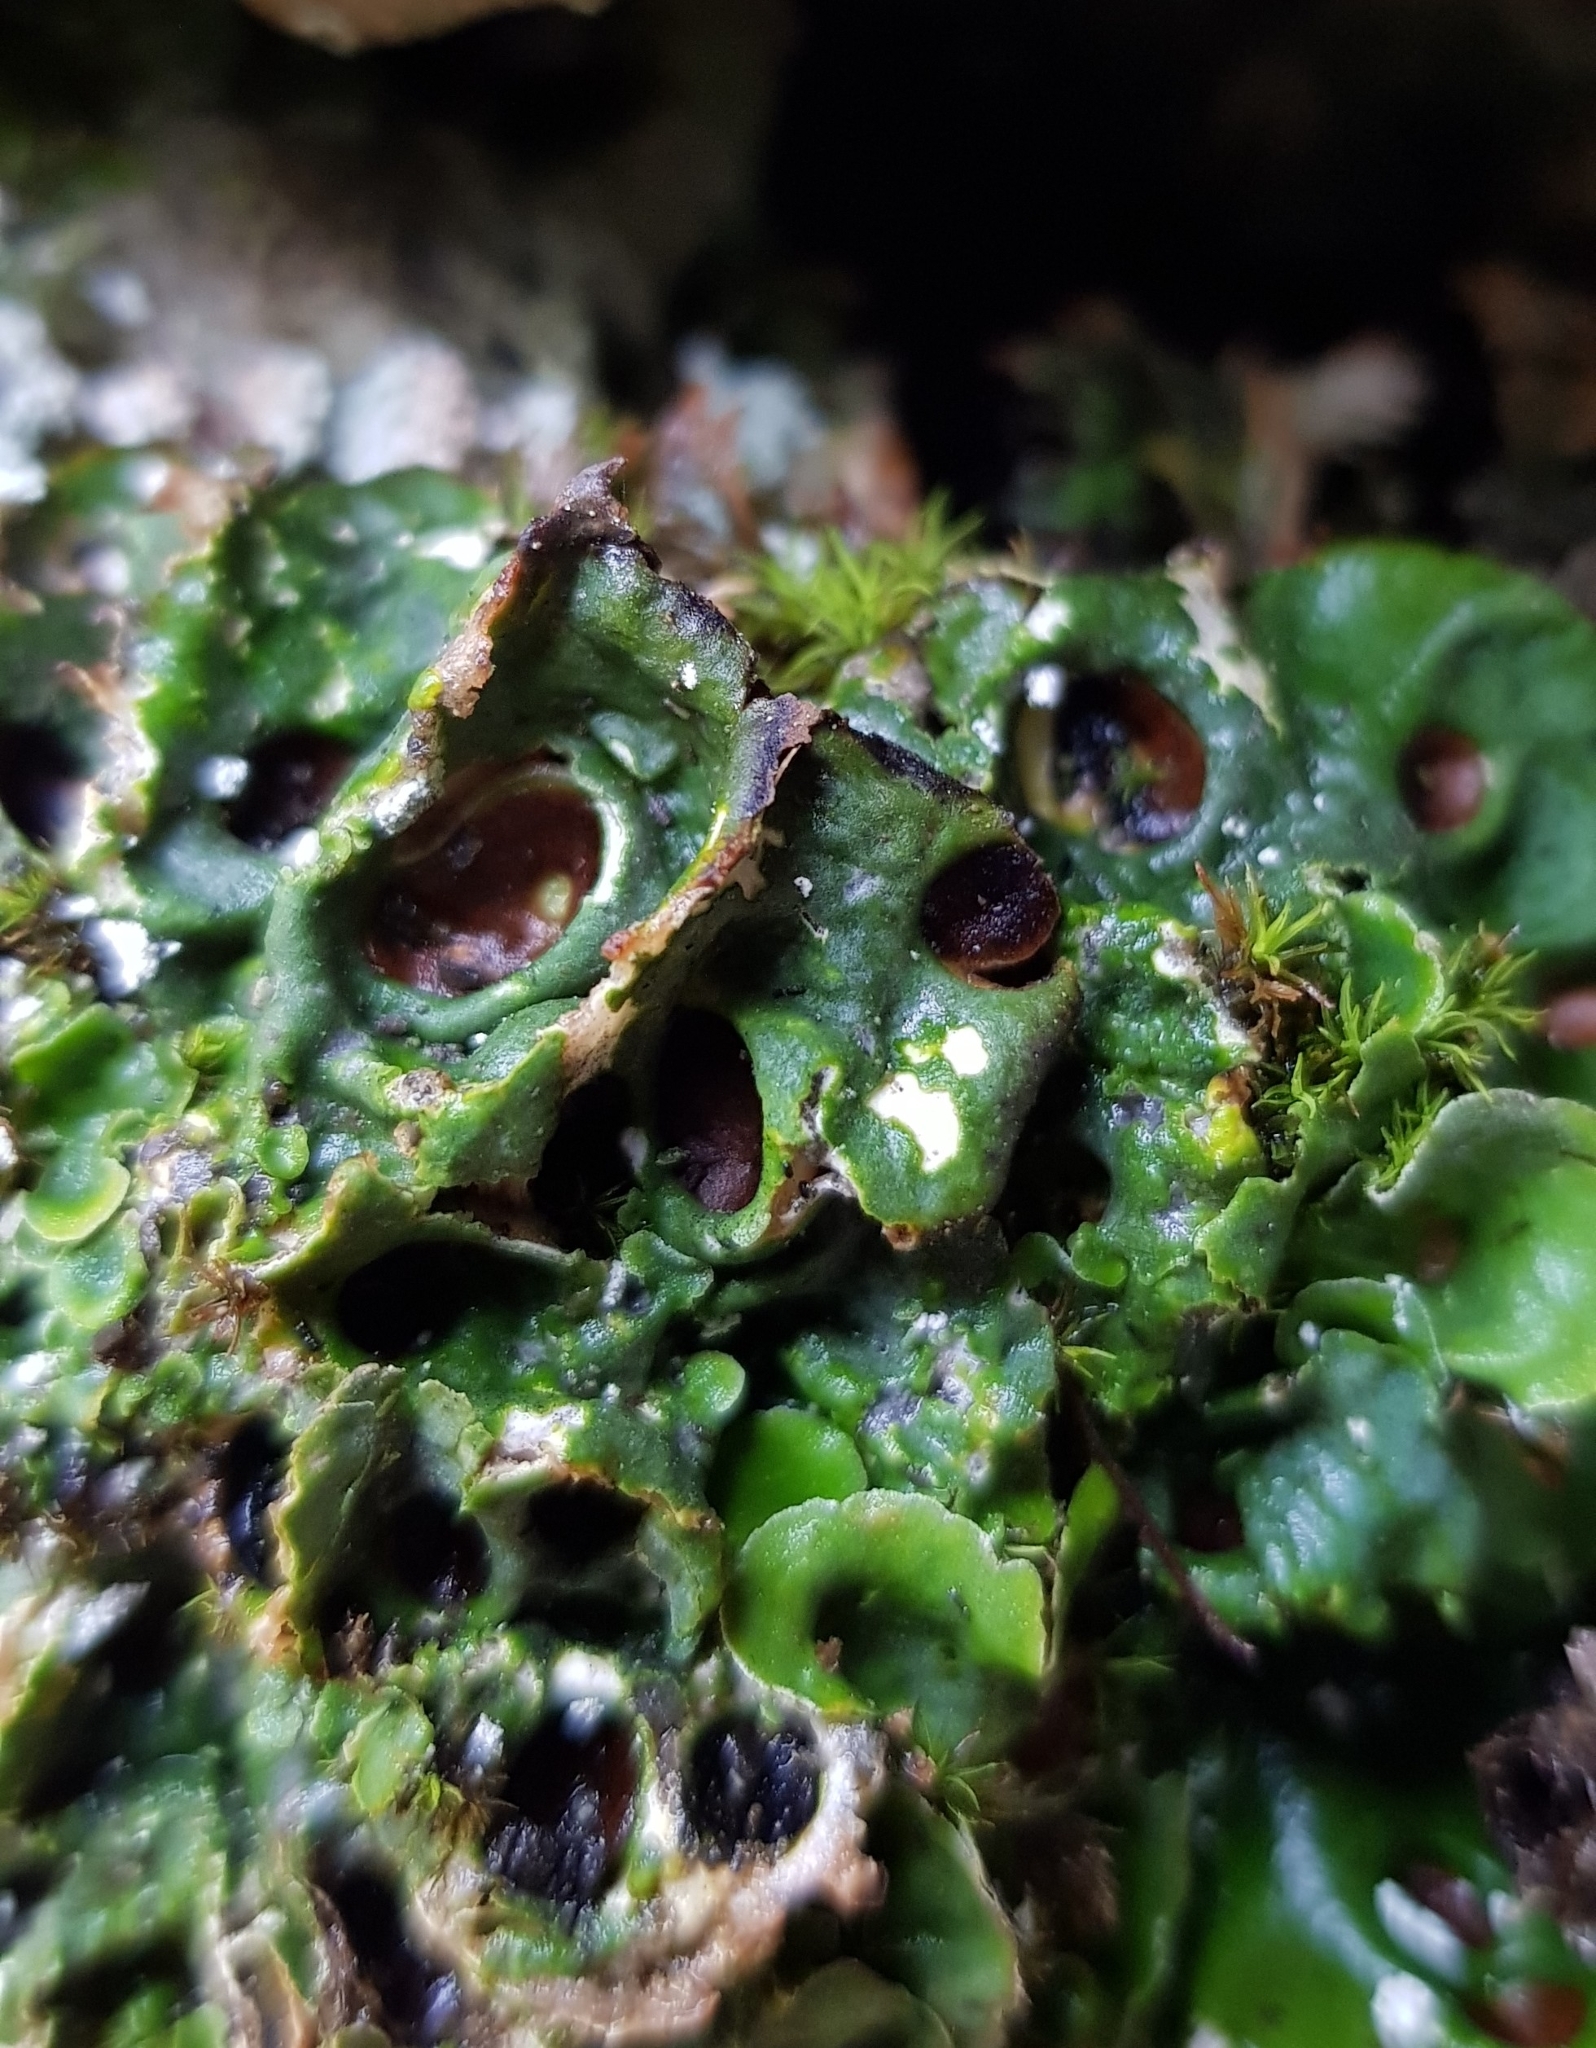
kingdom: Fungi
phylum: Ascomycota
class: Lecanoromycetes
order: Peltigerales
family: Peltigeraceae
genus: Solorina
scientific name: Solorina saccata
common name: Common chocolate chip lichen
